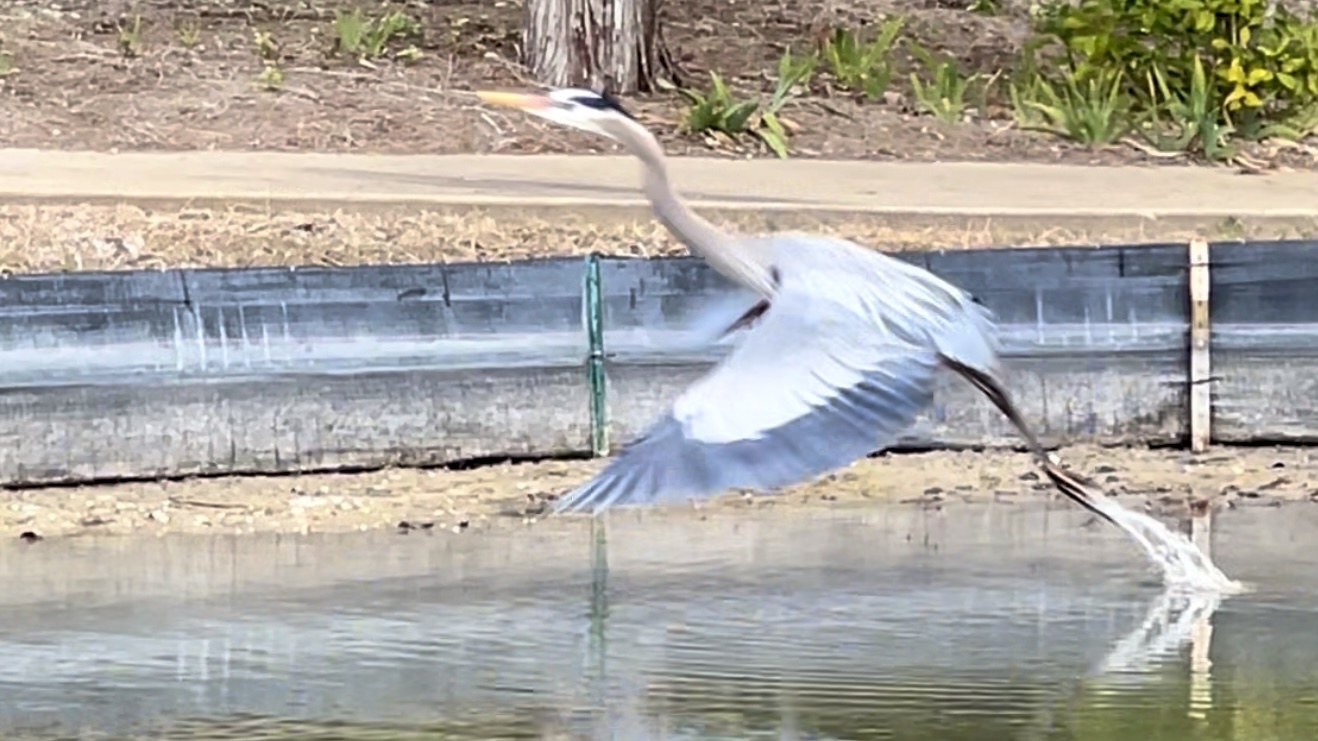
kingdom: Animalia
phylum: Chordata
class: Aves
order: Pelecaniformes
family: Ardeidae
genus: Ardea
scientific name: Ardea herodias
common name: Great blue heron
